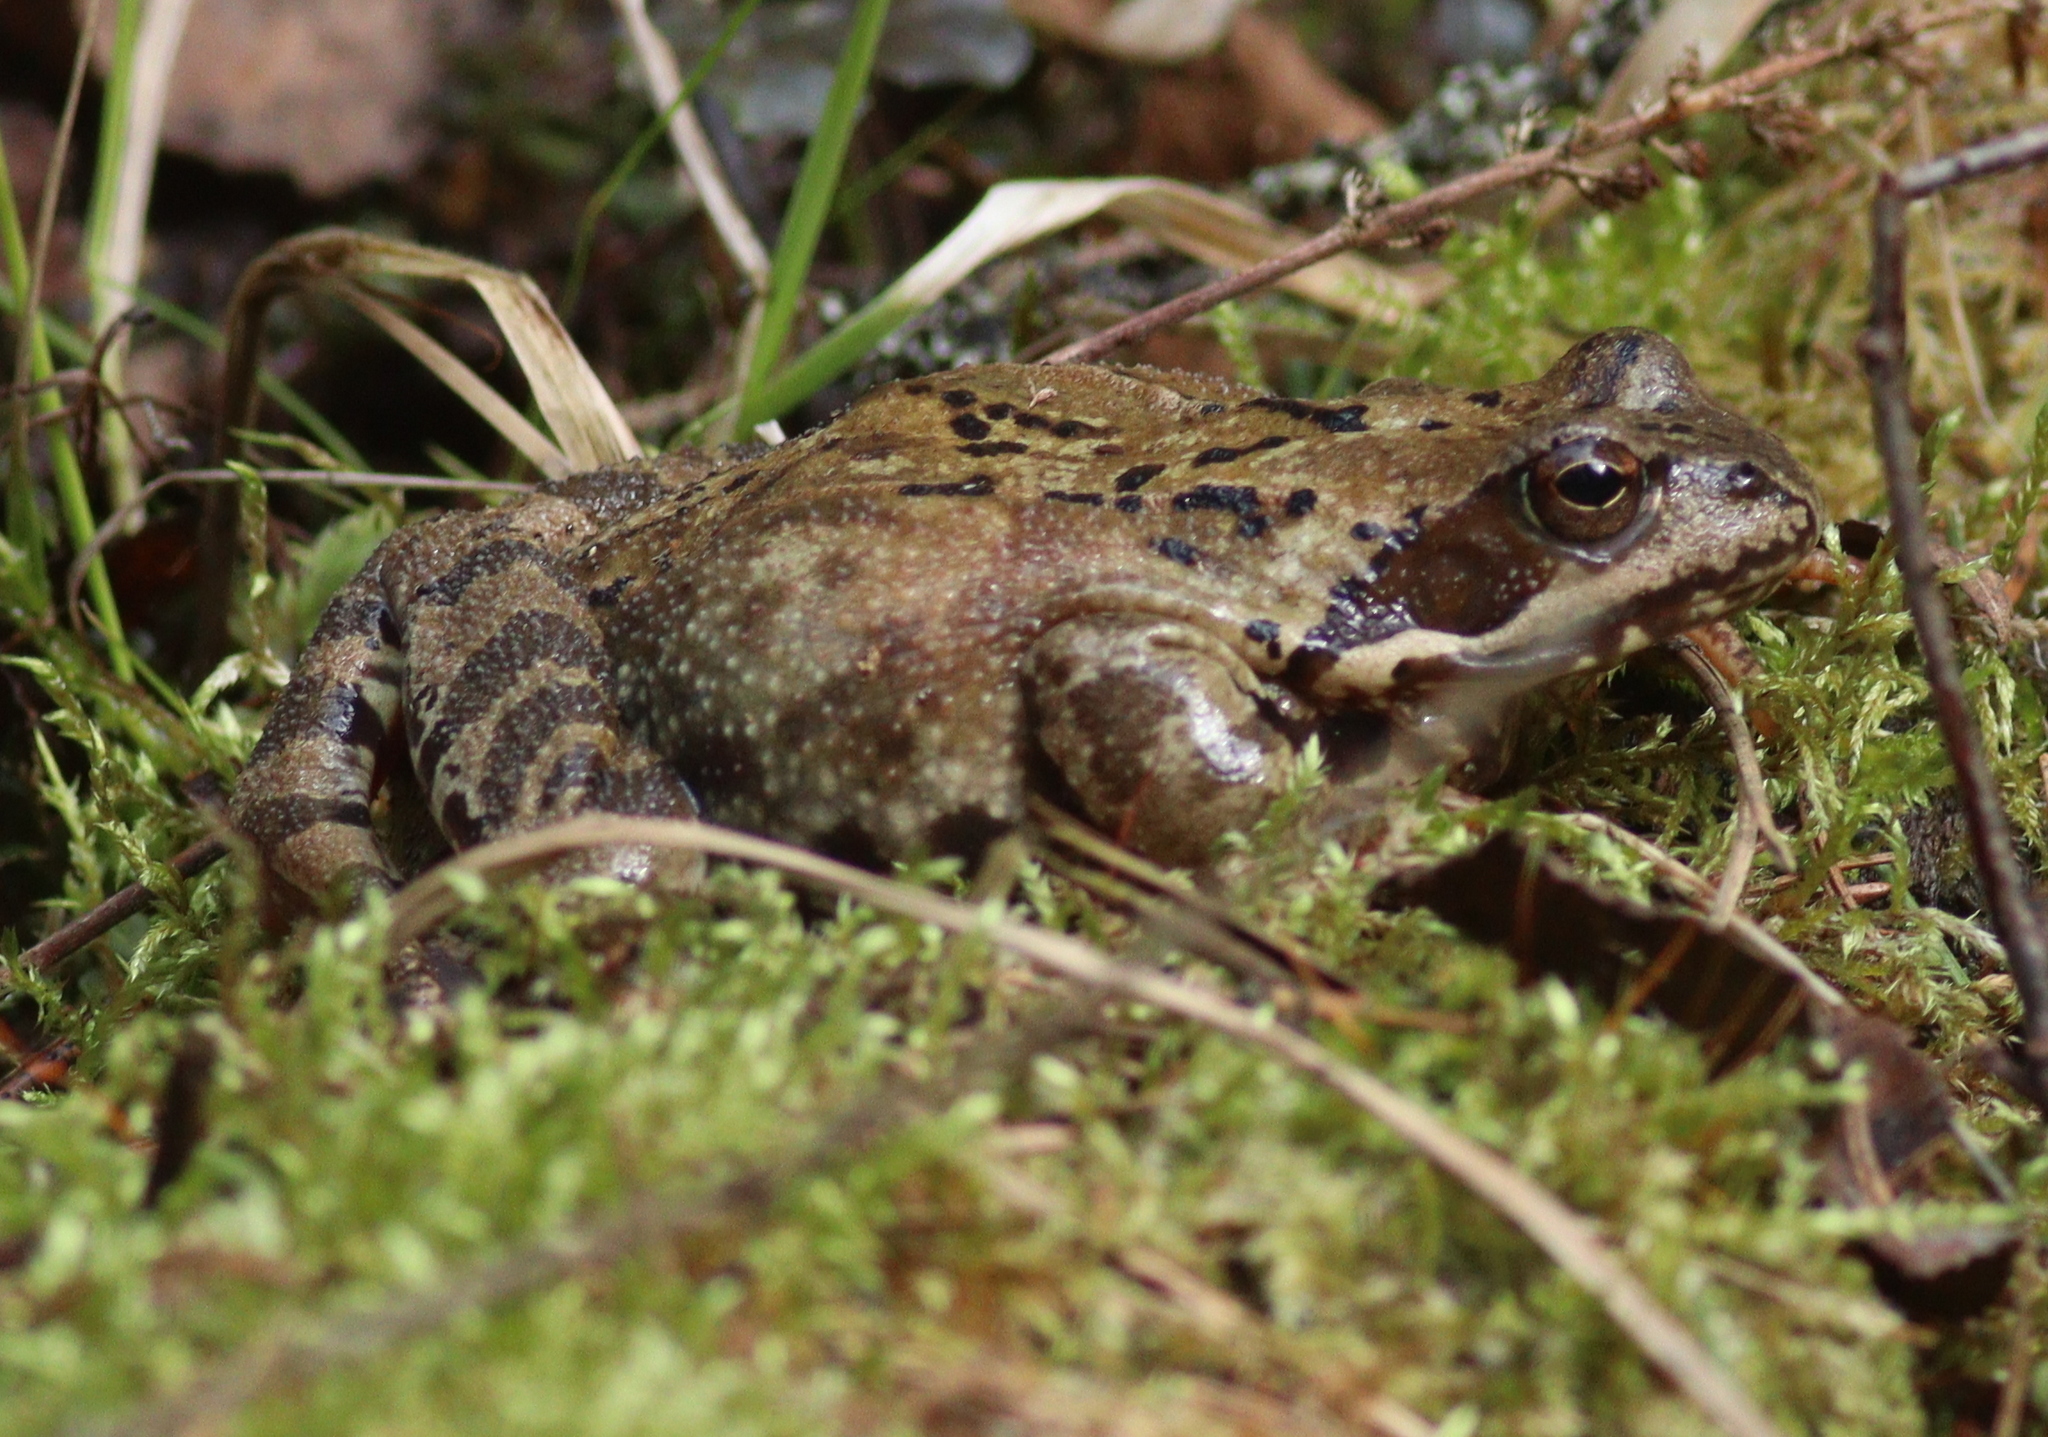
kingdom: Animalia
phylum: Chordata
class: Amphibia
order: Anura
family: Ranidae
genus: Rana
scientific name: Rana temporaria
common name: Common frog
